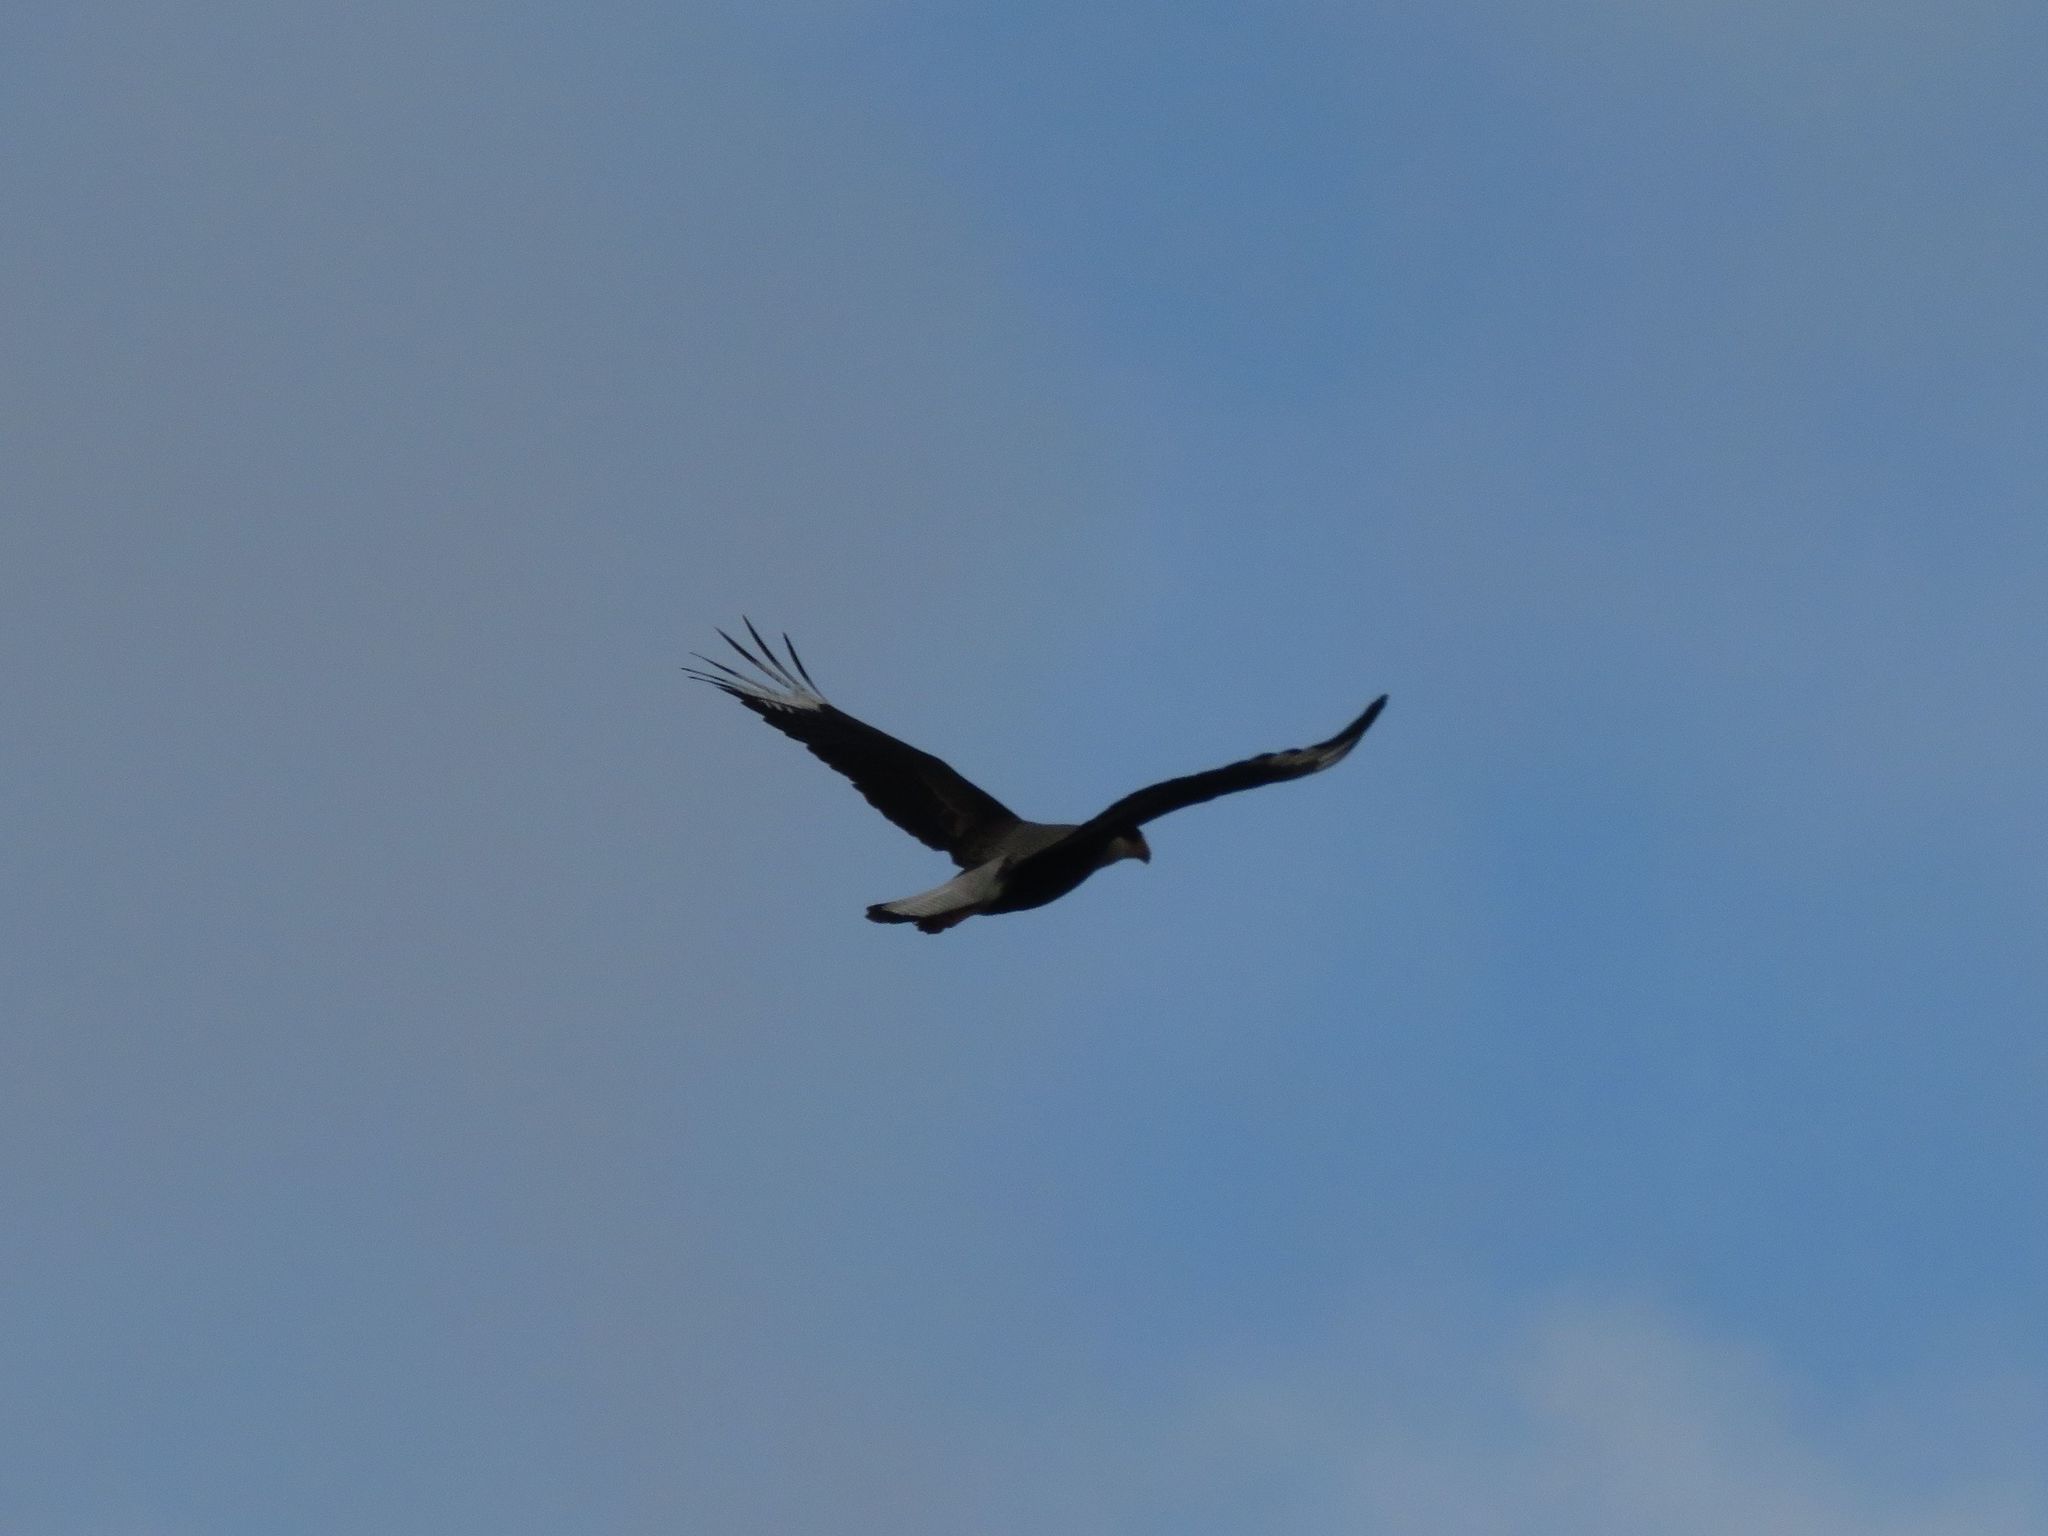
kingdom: Animalia
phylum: Chordata
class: Aves
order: Falconiformes
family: Falconidae
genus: Caracara
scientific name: Caracara plancus
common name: Southern caracara
